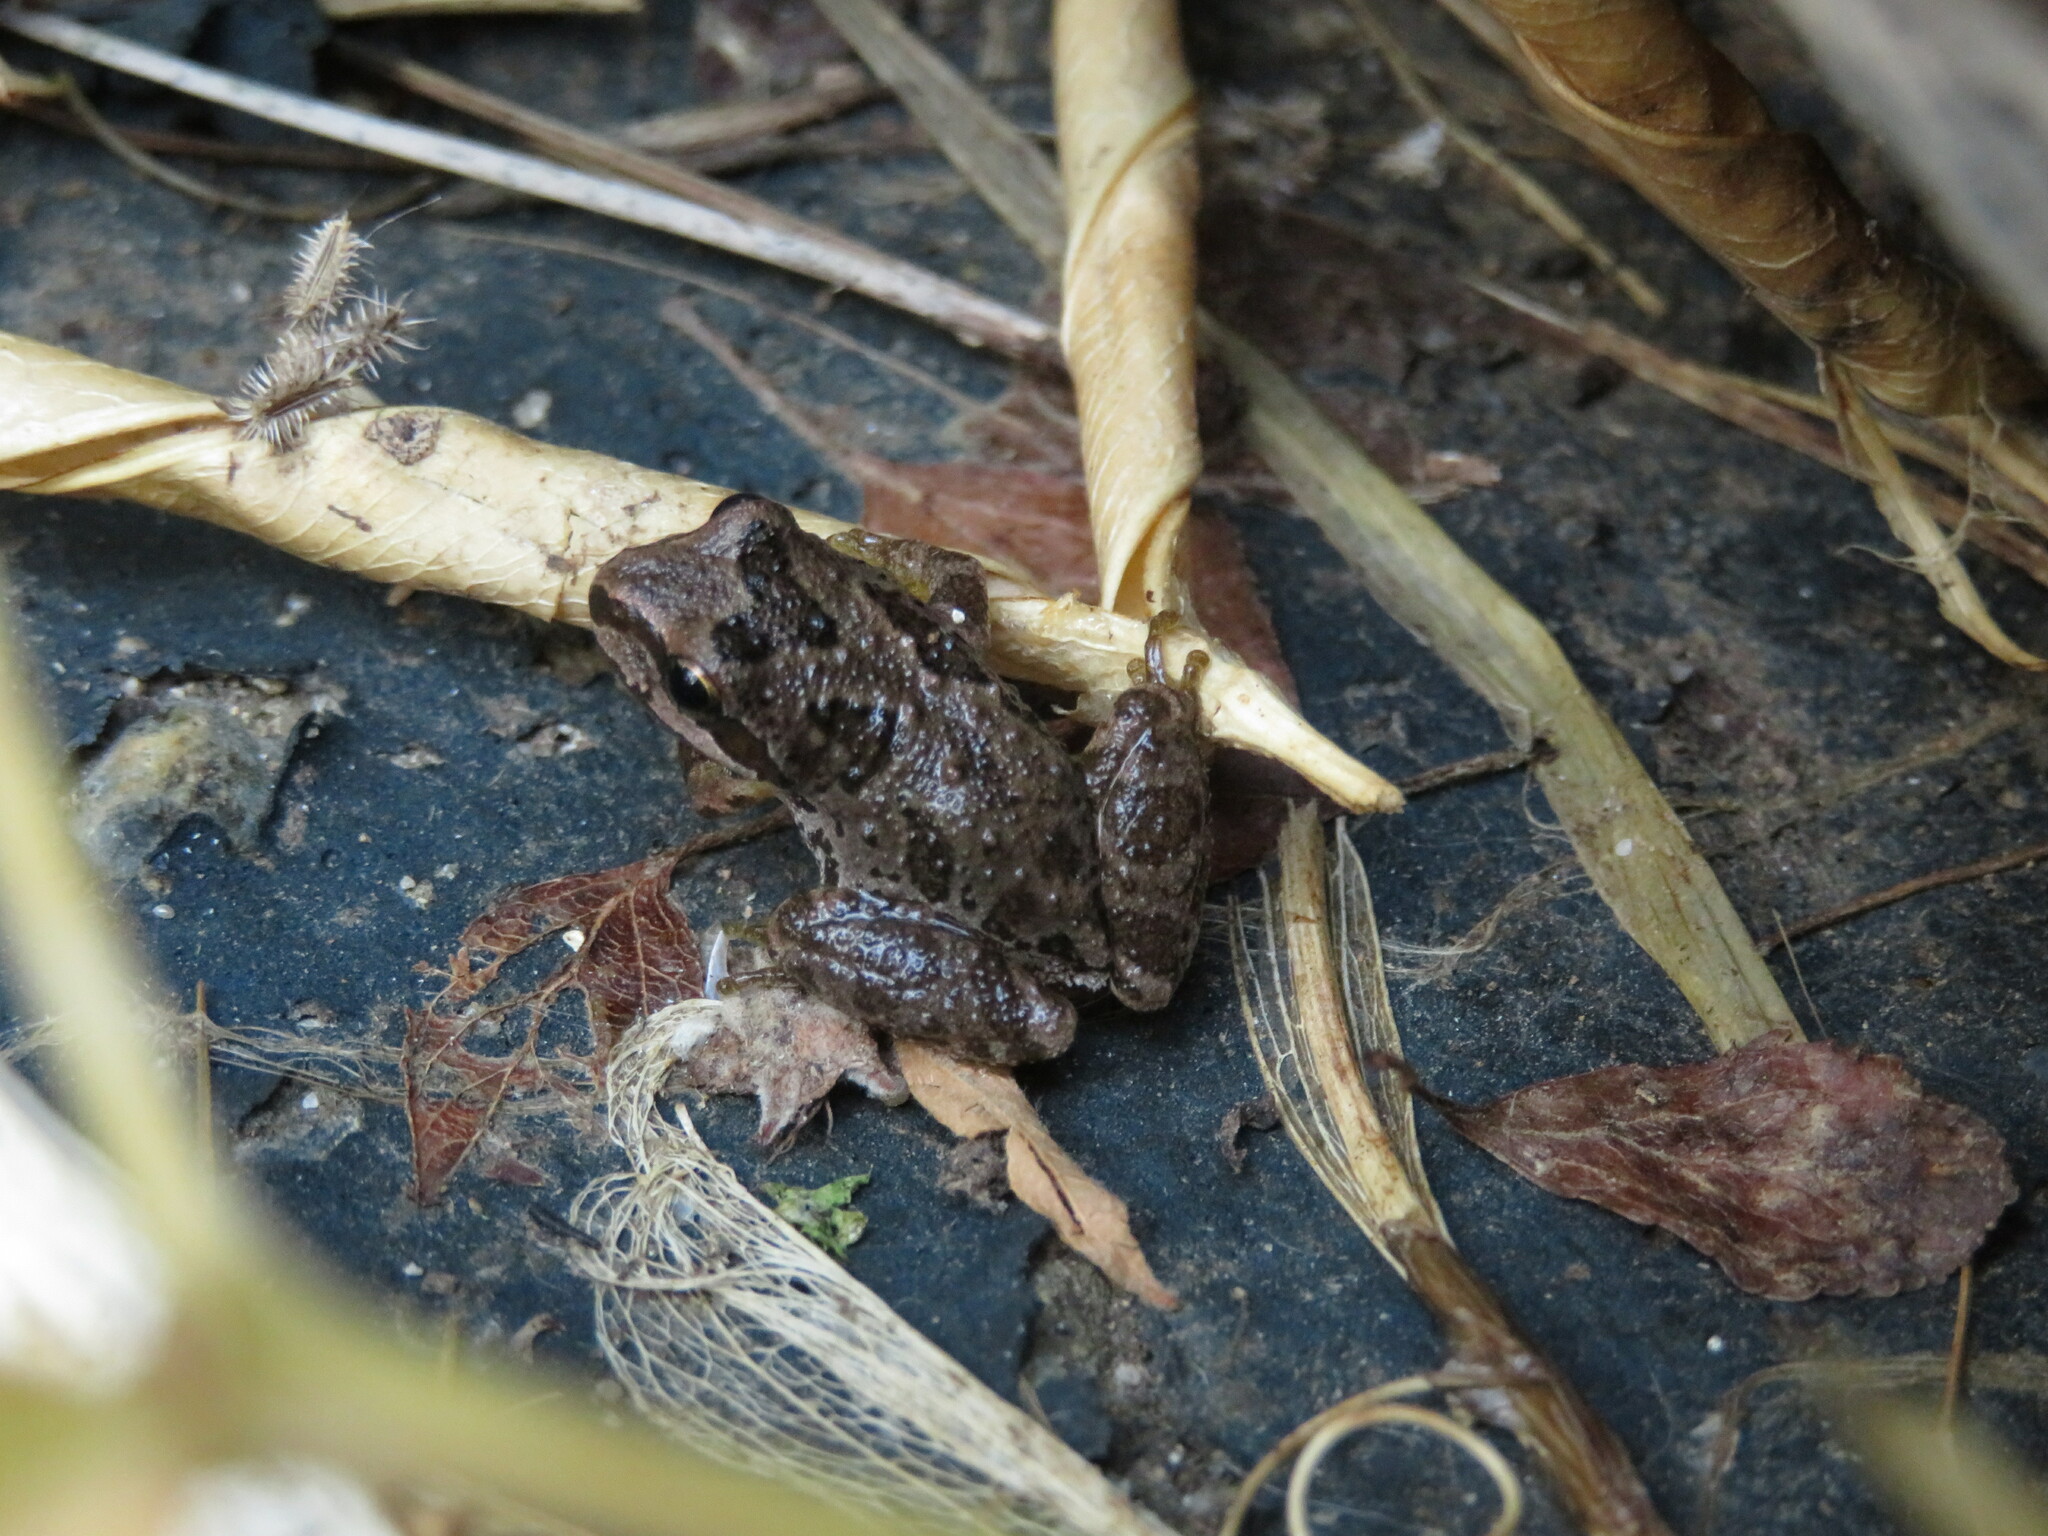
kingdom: Animalia
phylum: Chordata
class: Amphibia
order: Anura
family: Hylidae
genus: Pseudacris
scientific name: Pseudacris regilla
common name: Pacific chorus frog
